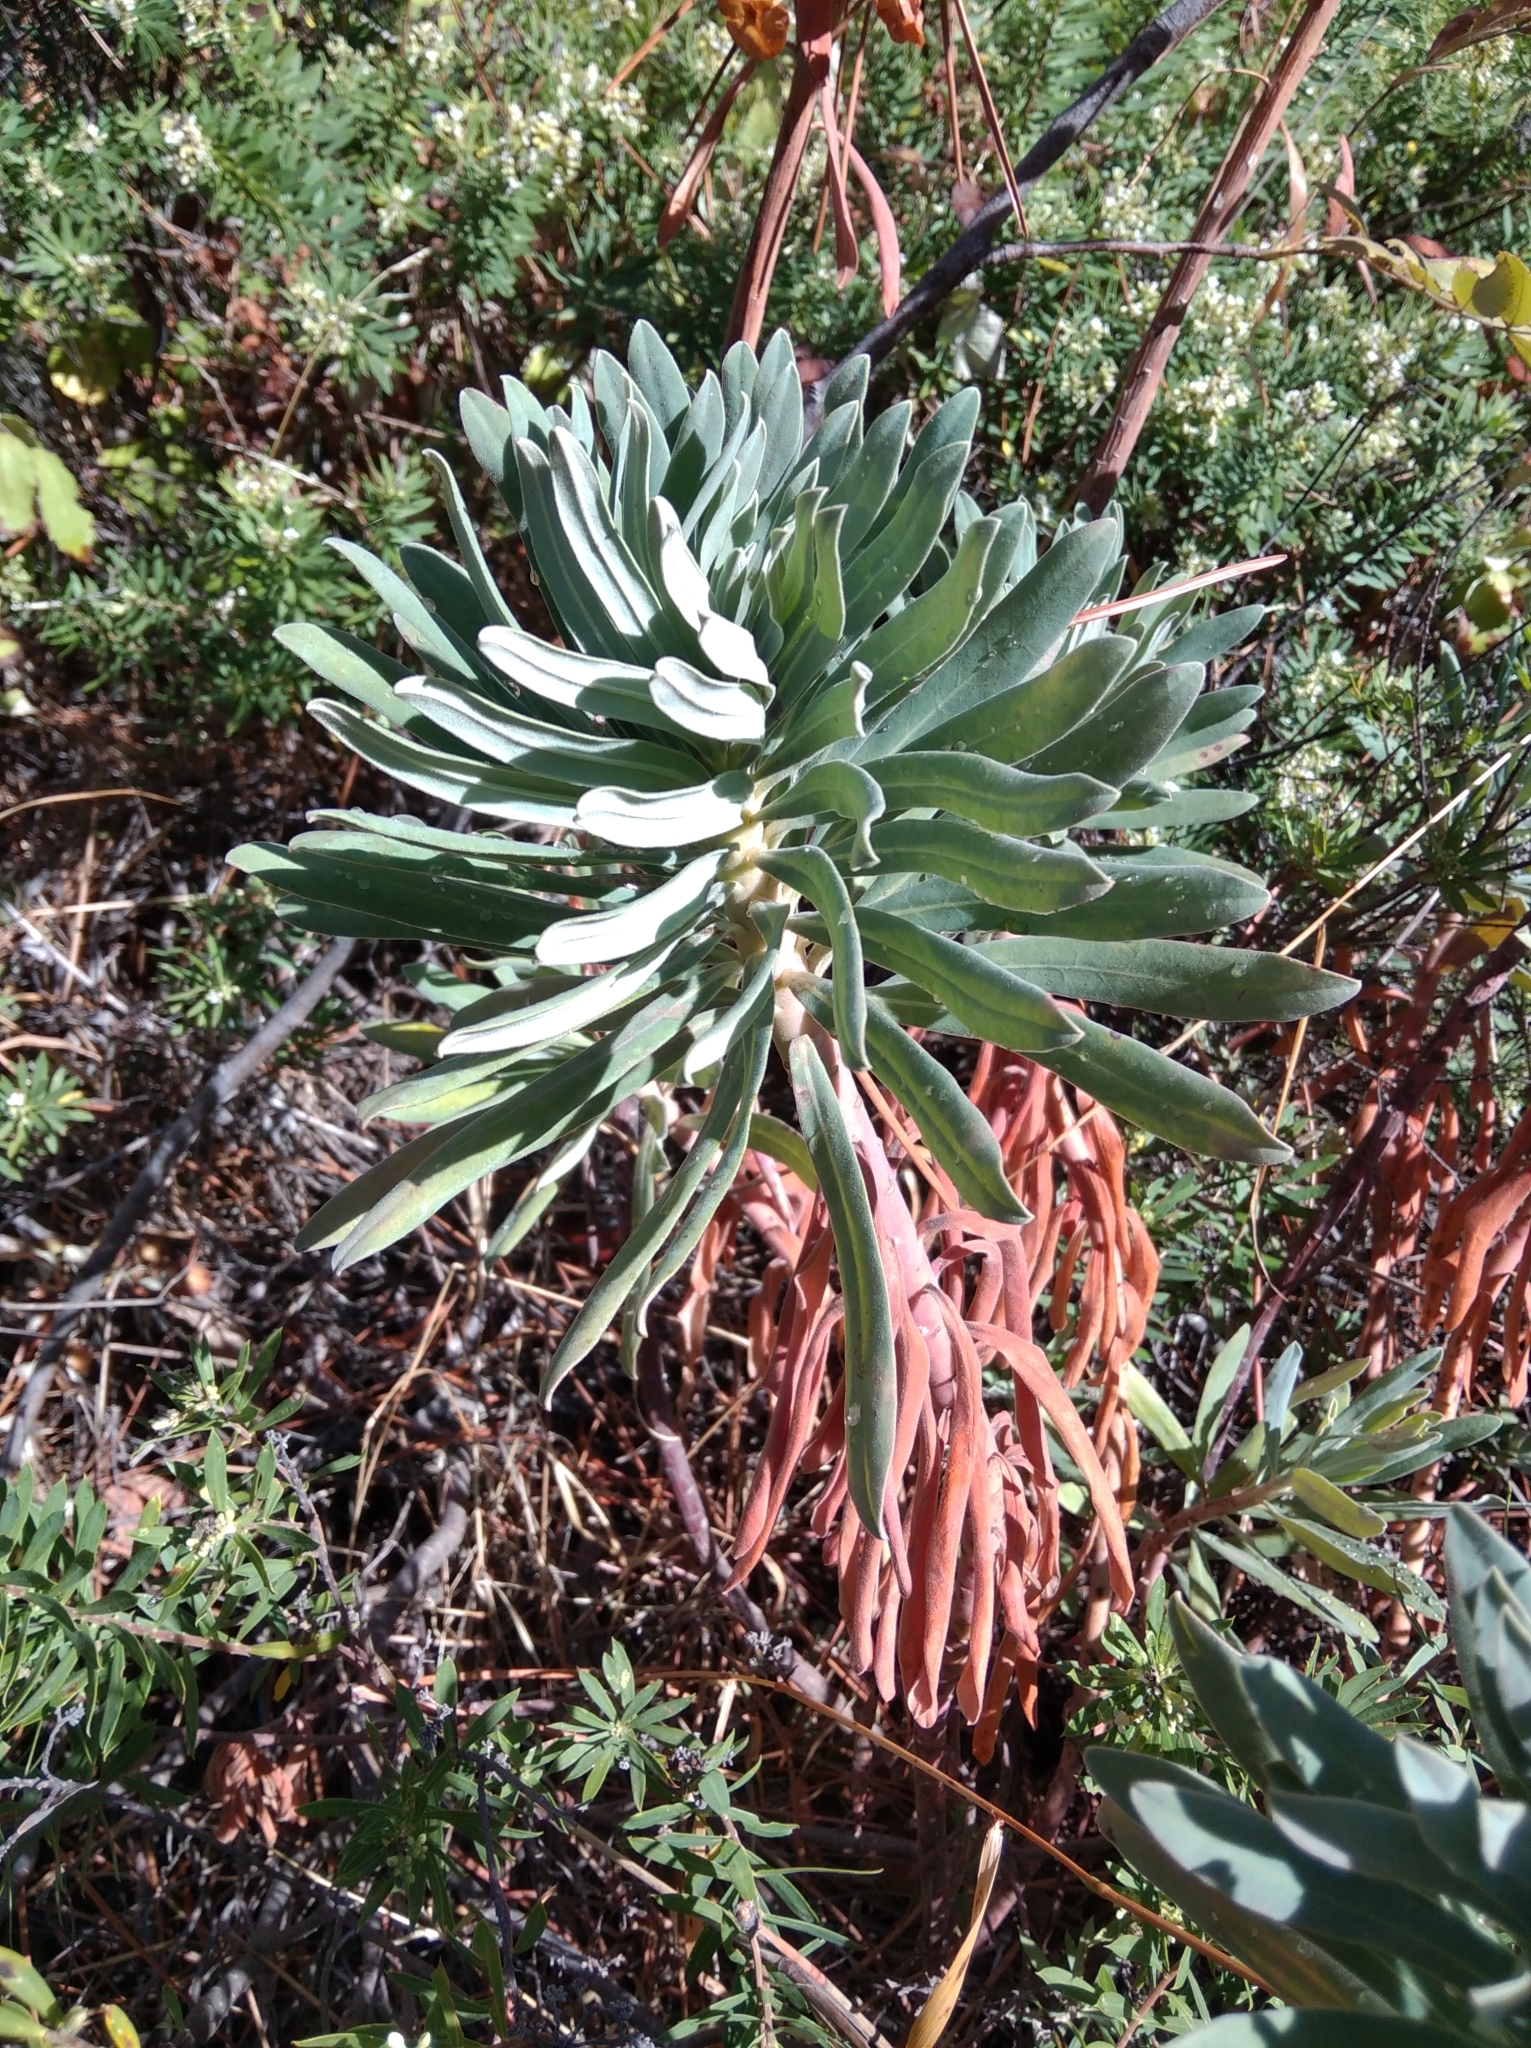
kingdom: Plantae
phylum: Tracheophyta
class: Magnoliopsida
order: Malpighiales
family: Euphorbiaceae
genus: Euphorbia
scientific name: Euphorbia characias
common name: Mediterranean spurge
